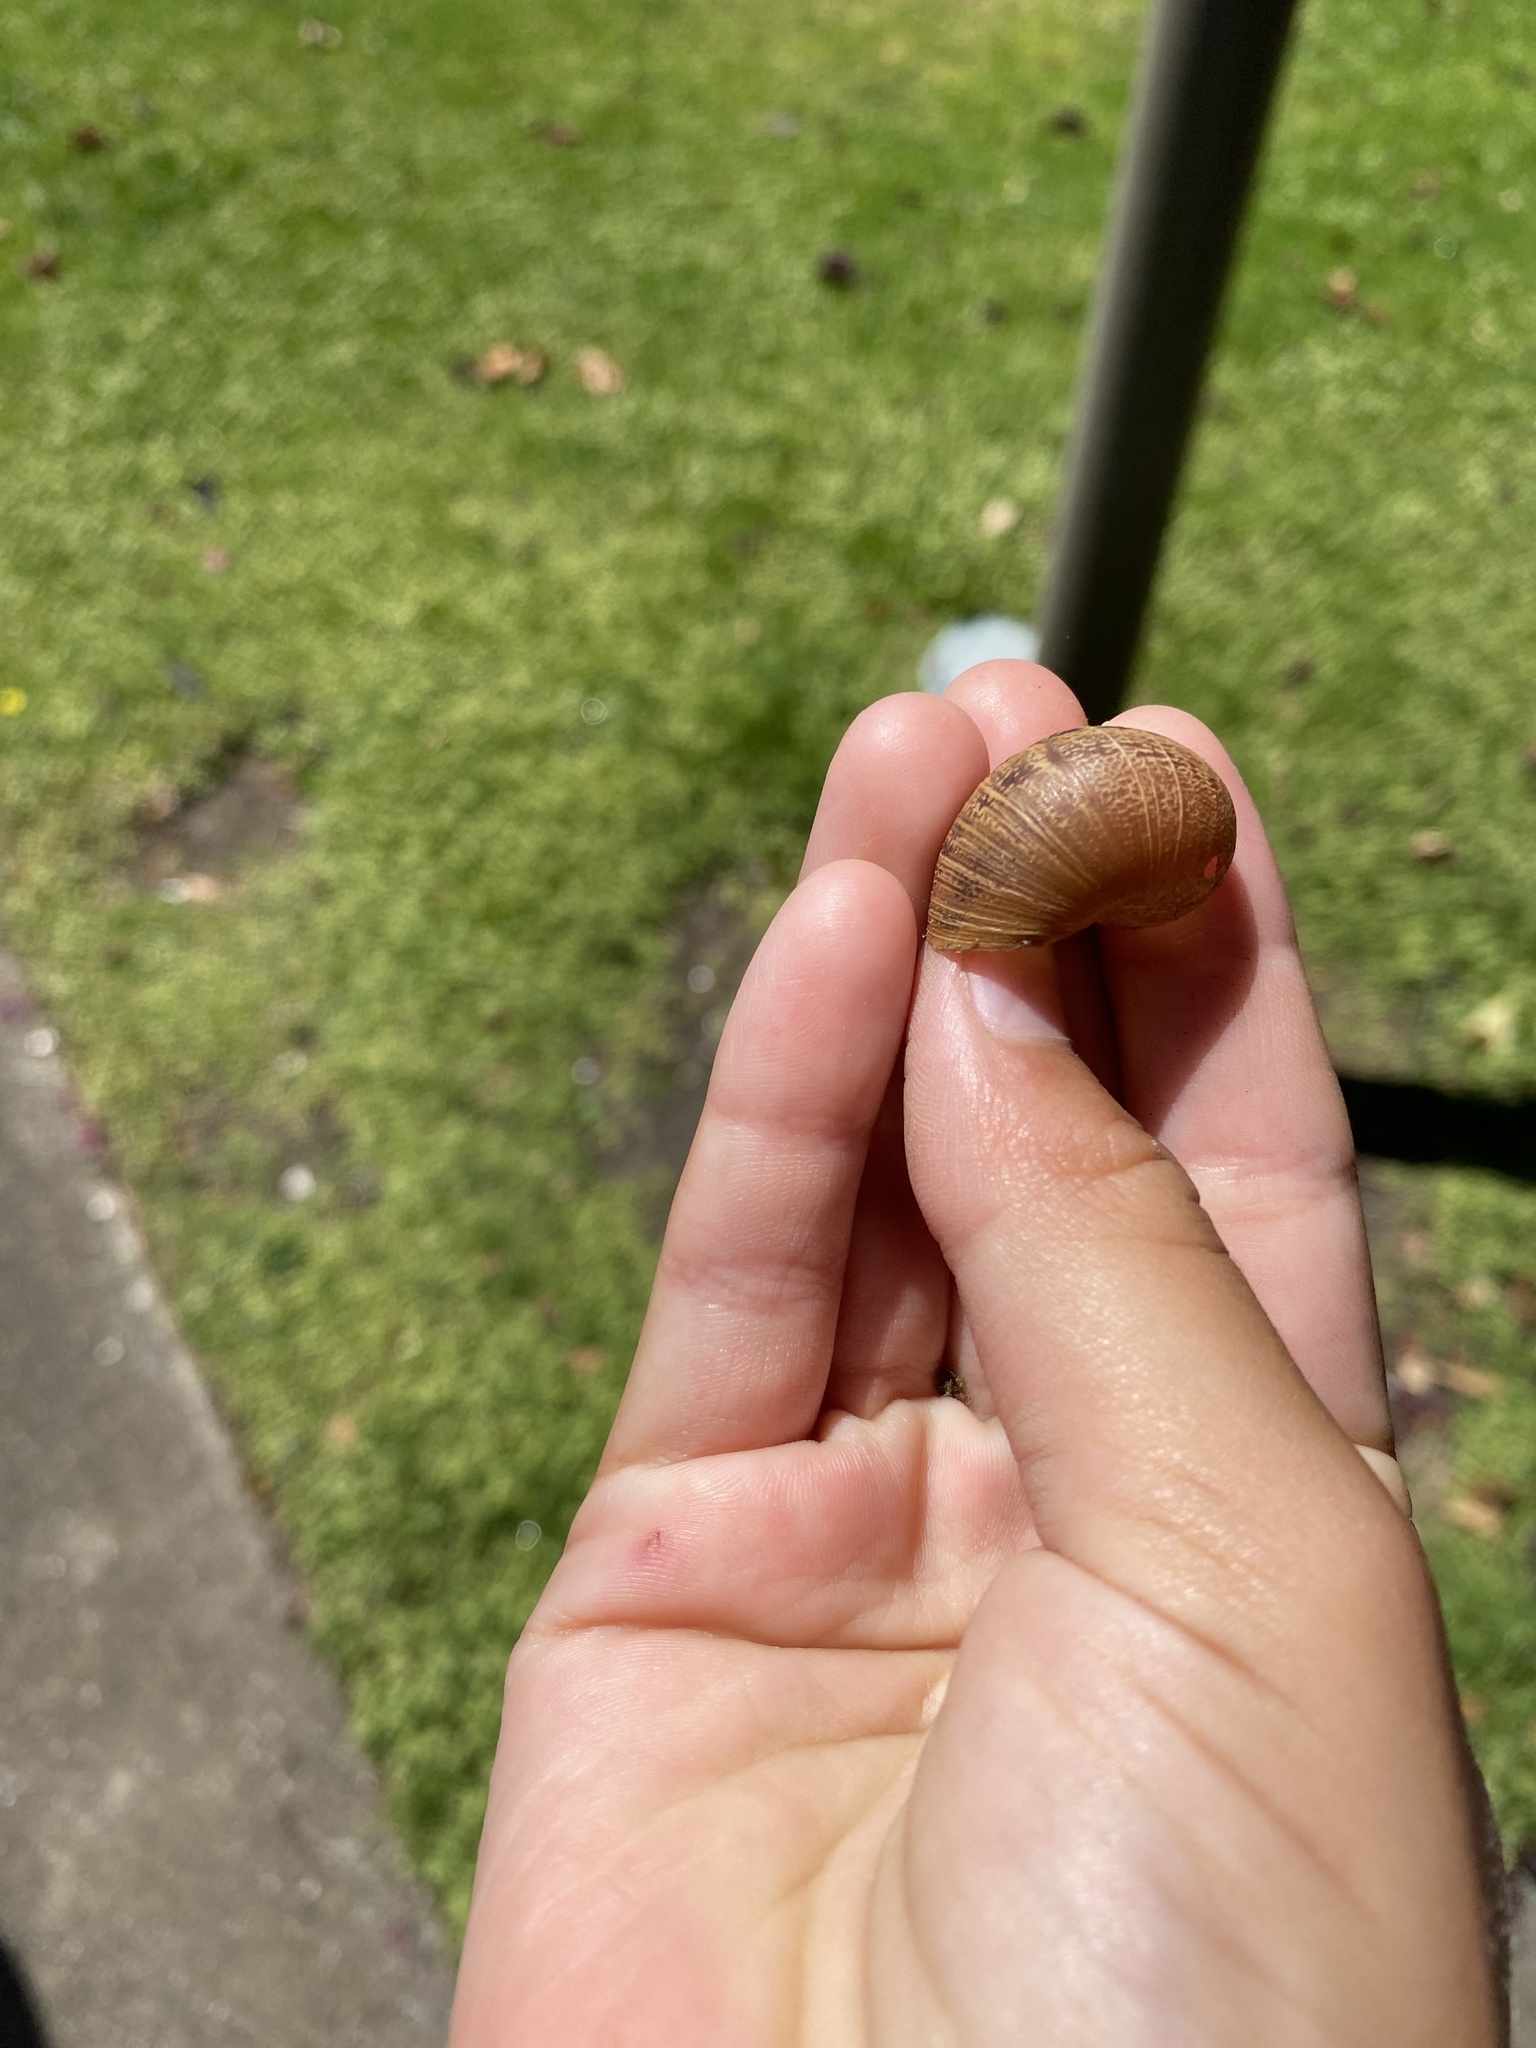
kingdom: Animalia
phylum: Mollusca
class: Gastropoda
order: Stylommatophora
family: Helicidae
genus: Cornu
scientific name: Cornu aspersum
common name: Brown garden snail
